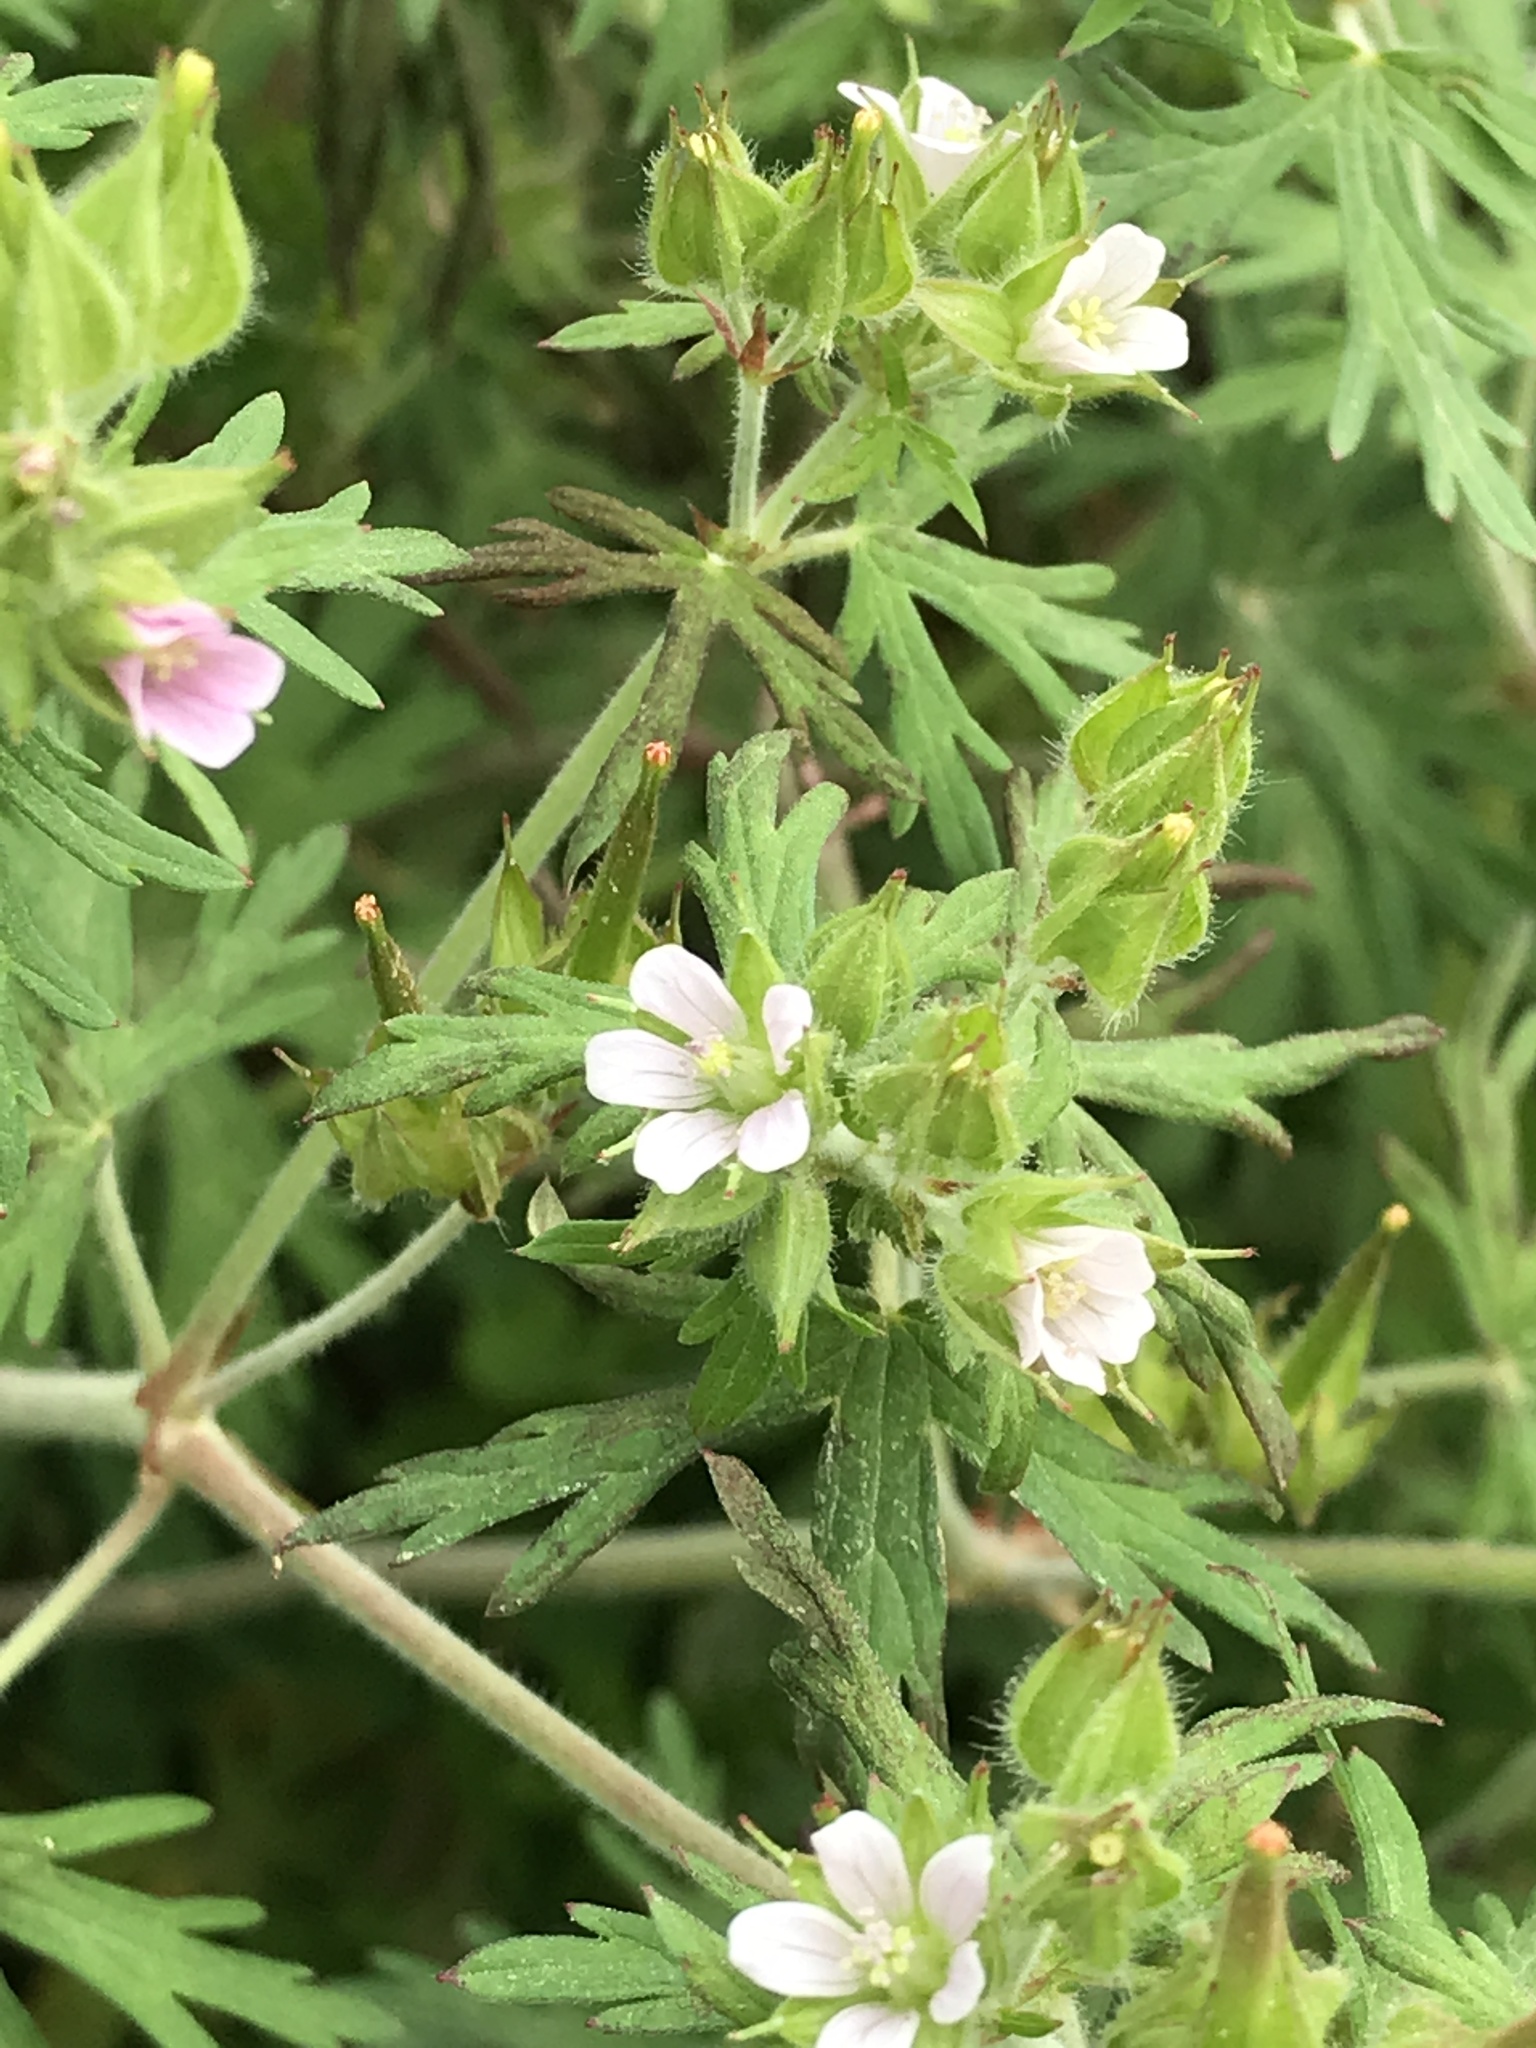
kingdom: Plantae
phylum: Tracheophyta
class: Magnoliopsida
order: Geraniales
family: Geraniaceae
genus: Geranium
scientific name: Geranium carolinianum
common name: Carolina crane's-bill
